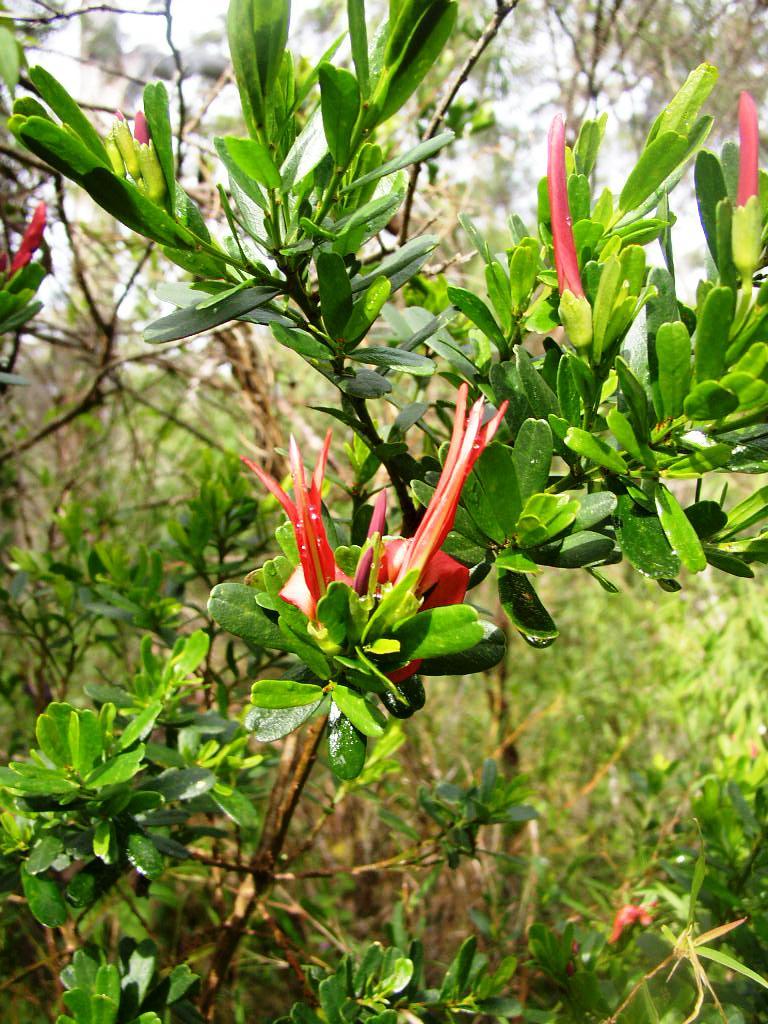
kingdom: Plantae
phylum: Tracheophyta
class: Magnoliopsida
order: Fabales
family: Fabaceae
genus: Templetonia
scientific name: Templetonia retusa
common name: Cockies'-tongue
